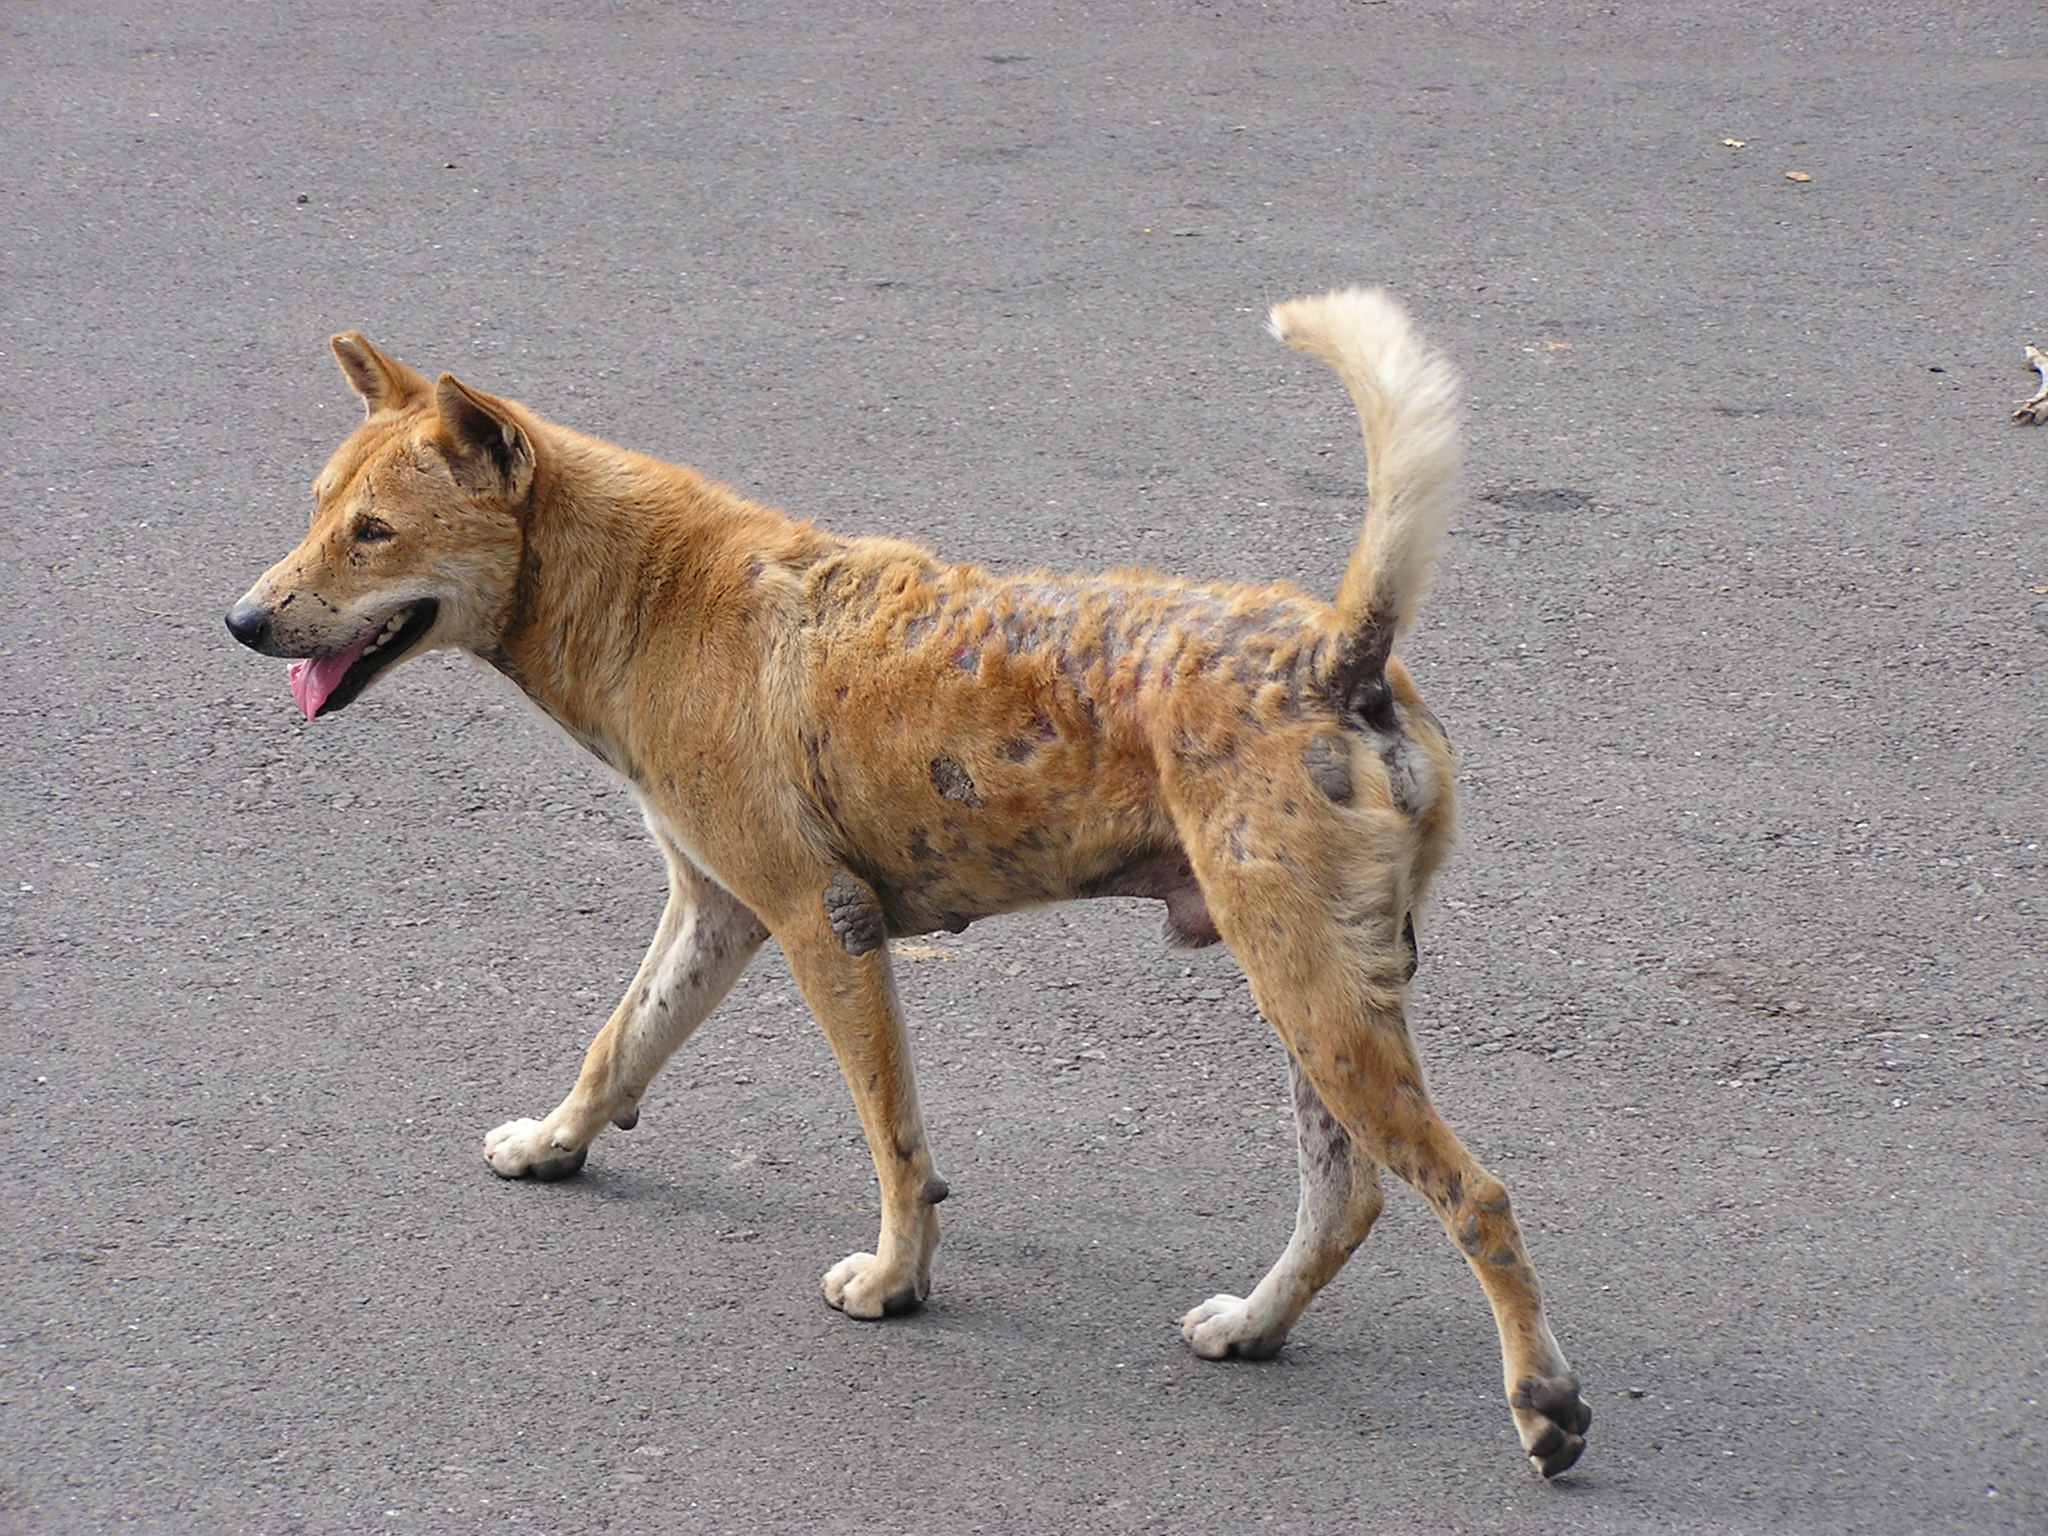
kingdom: Animalia
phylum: Arthropoda
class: Arachnida
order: Trombidiformes
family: Demodecidae
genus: Demodex
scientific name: Demodex canis
